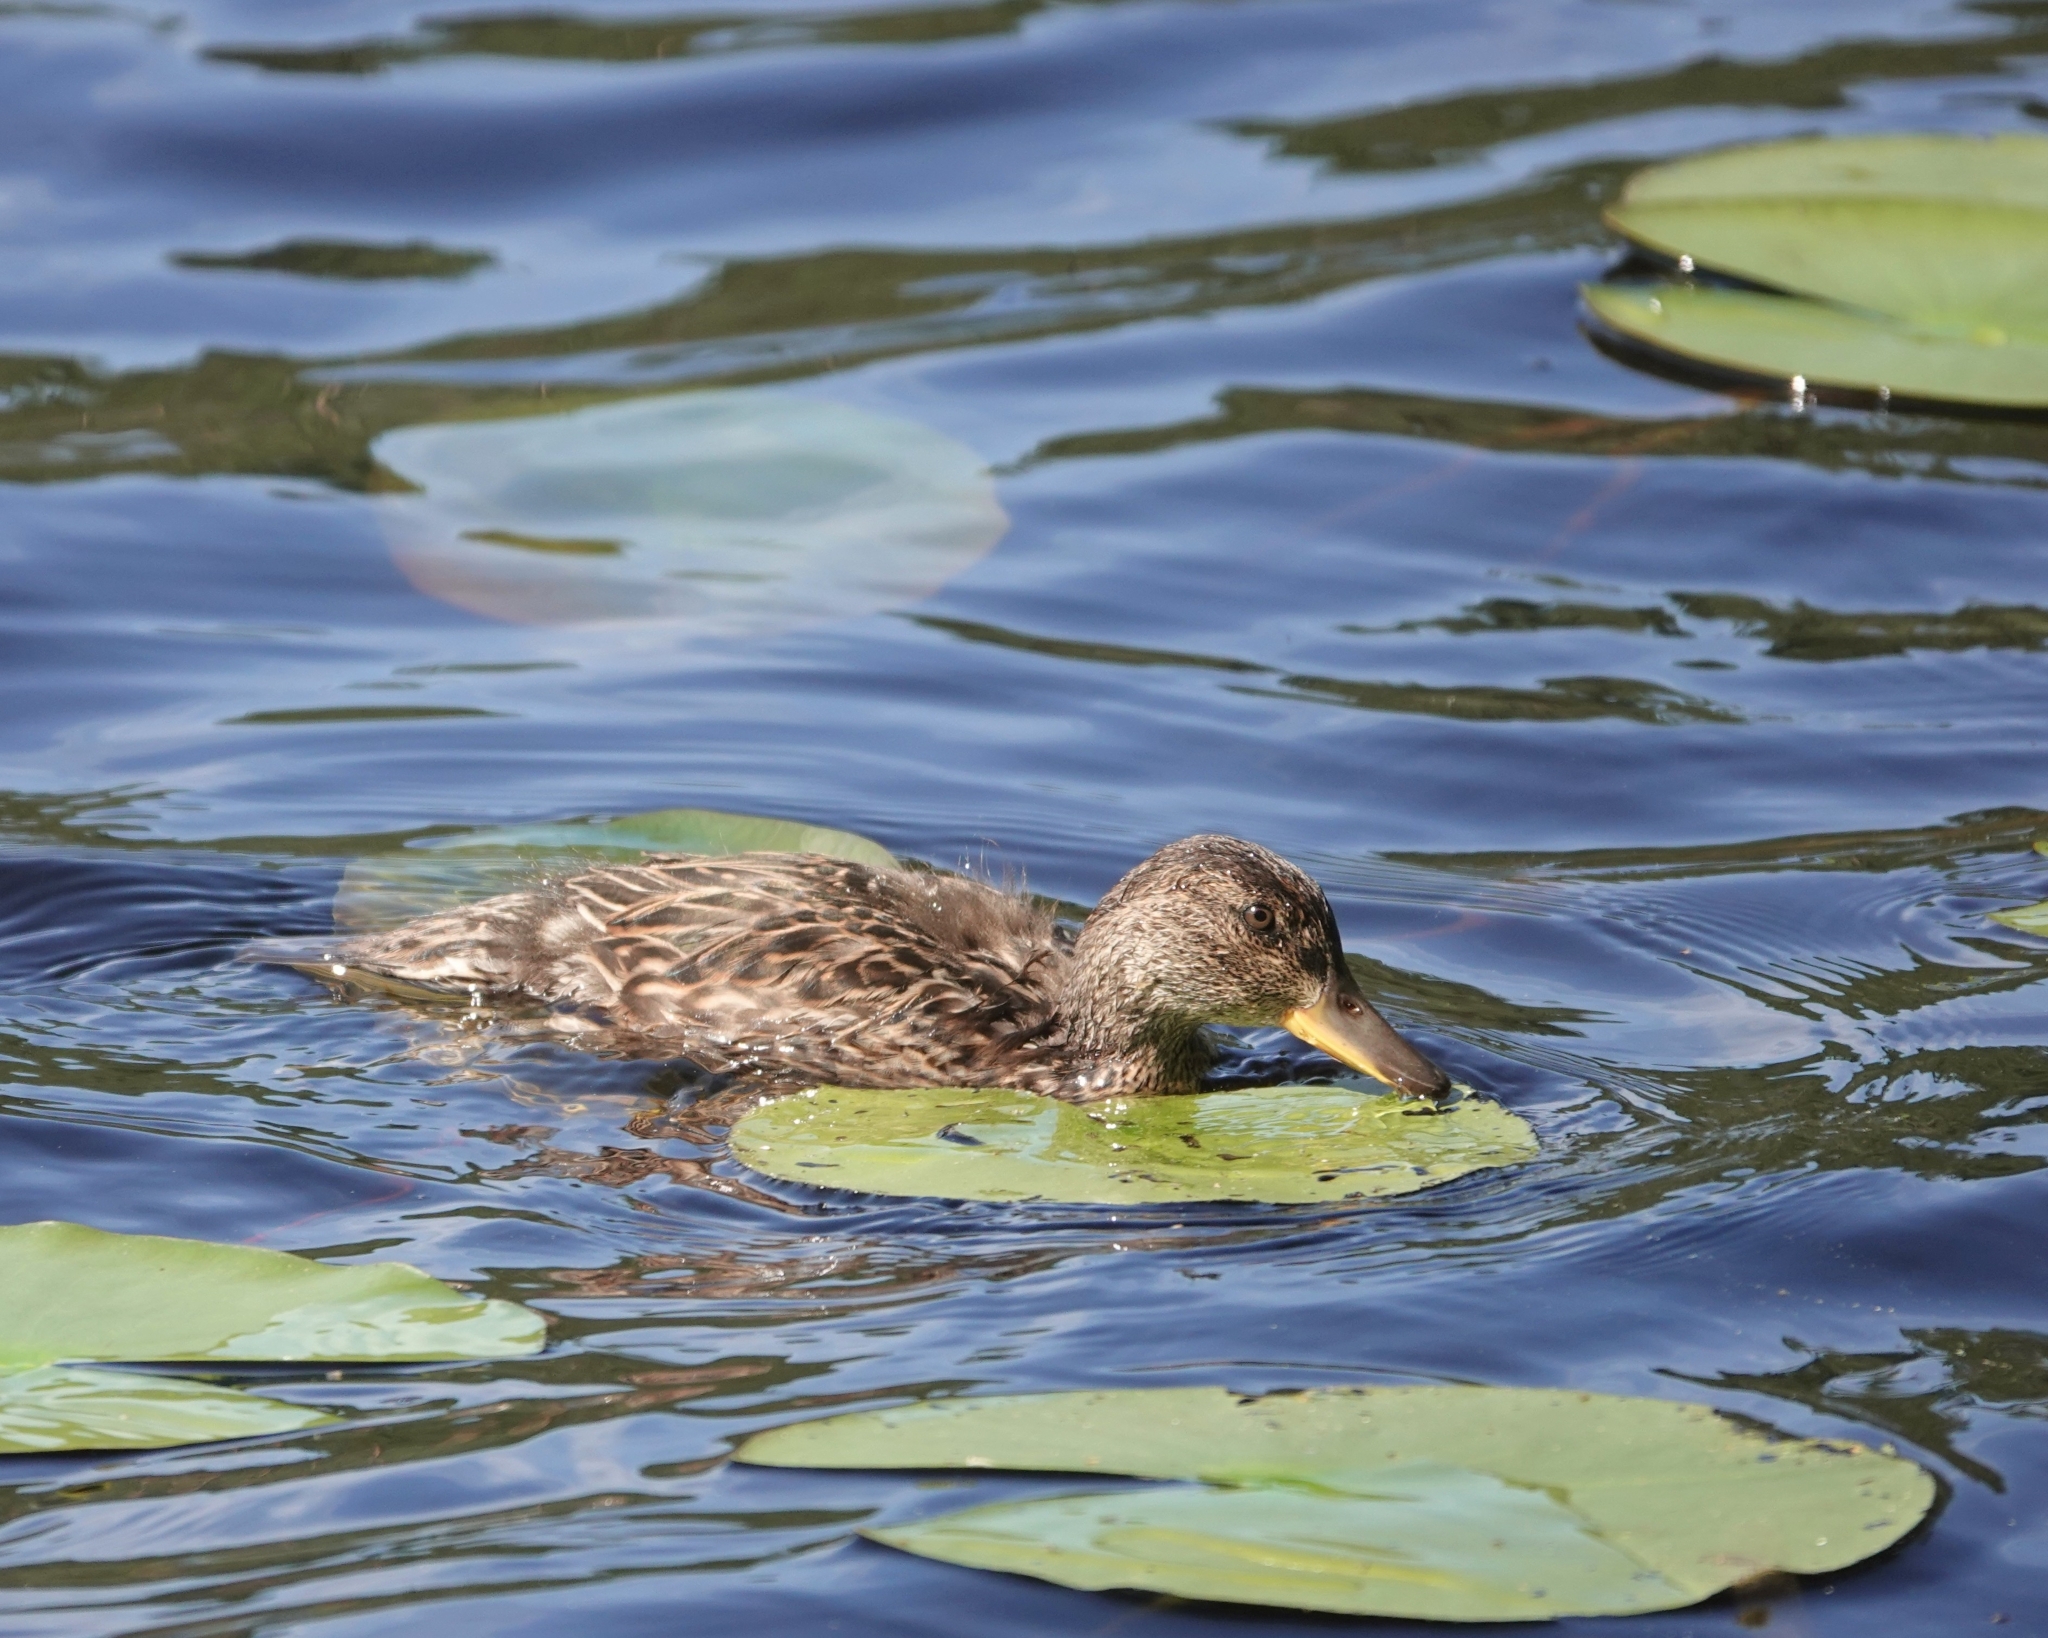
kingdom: Animalia
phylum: Chordata
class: Aves
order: Anseriformes
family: Anatidae
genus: Anas
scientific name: Anas platyrhynchos
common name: Mallard
